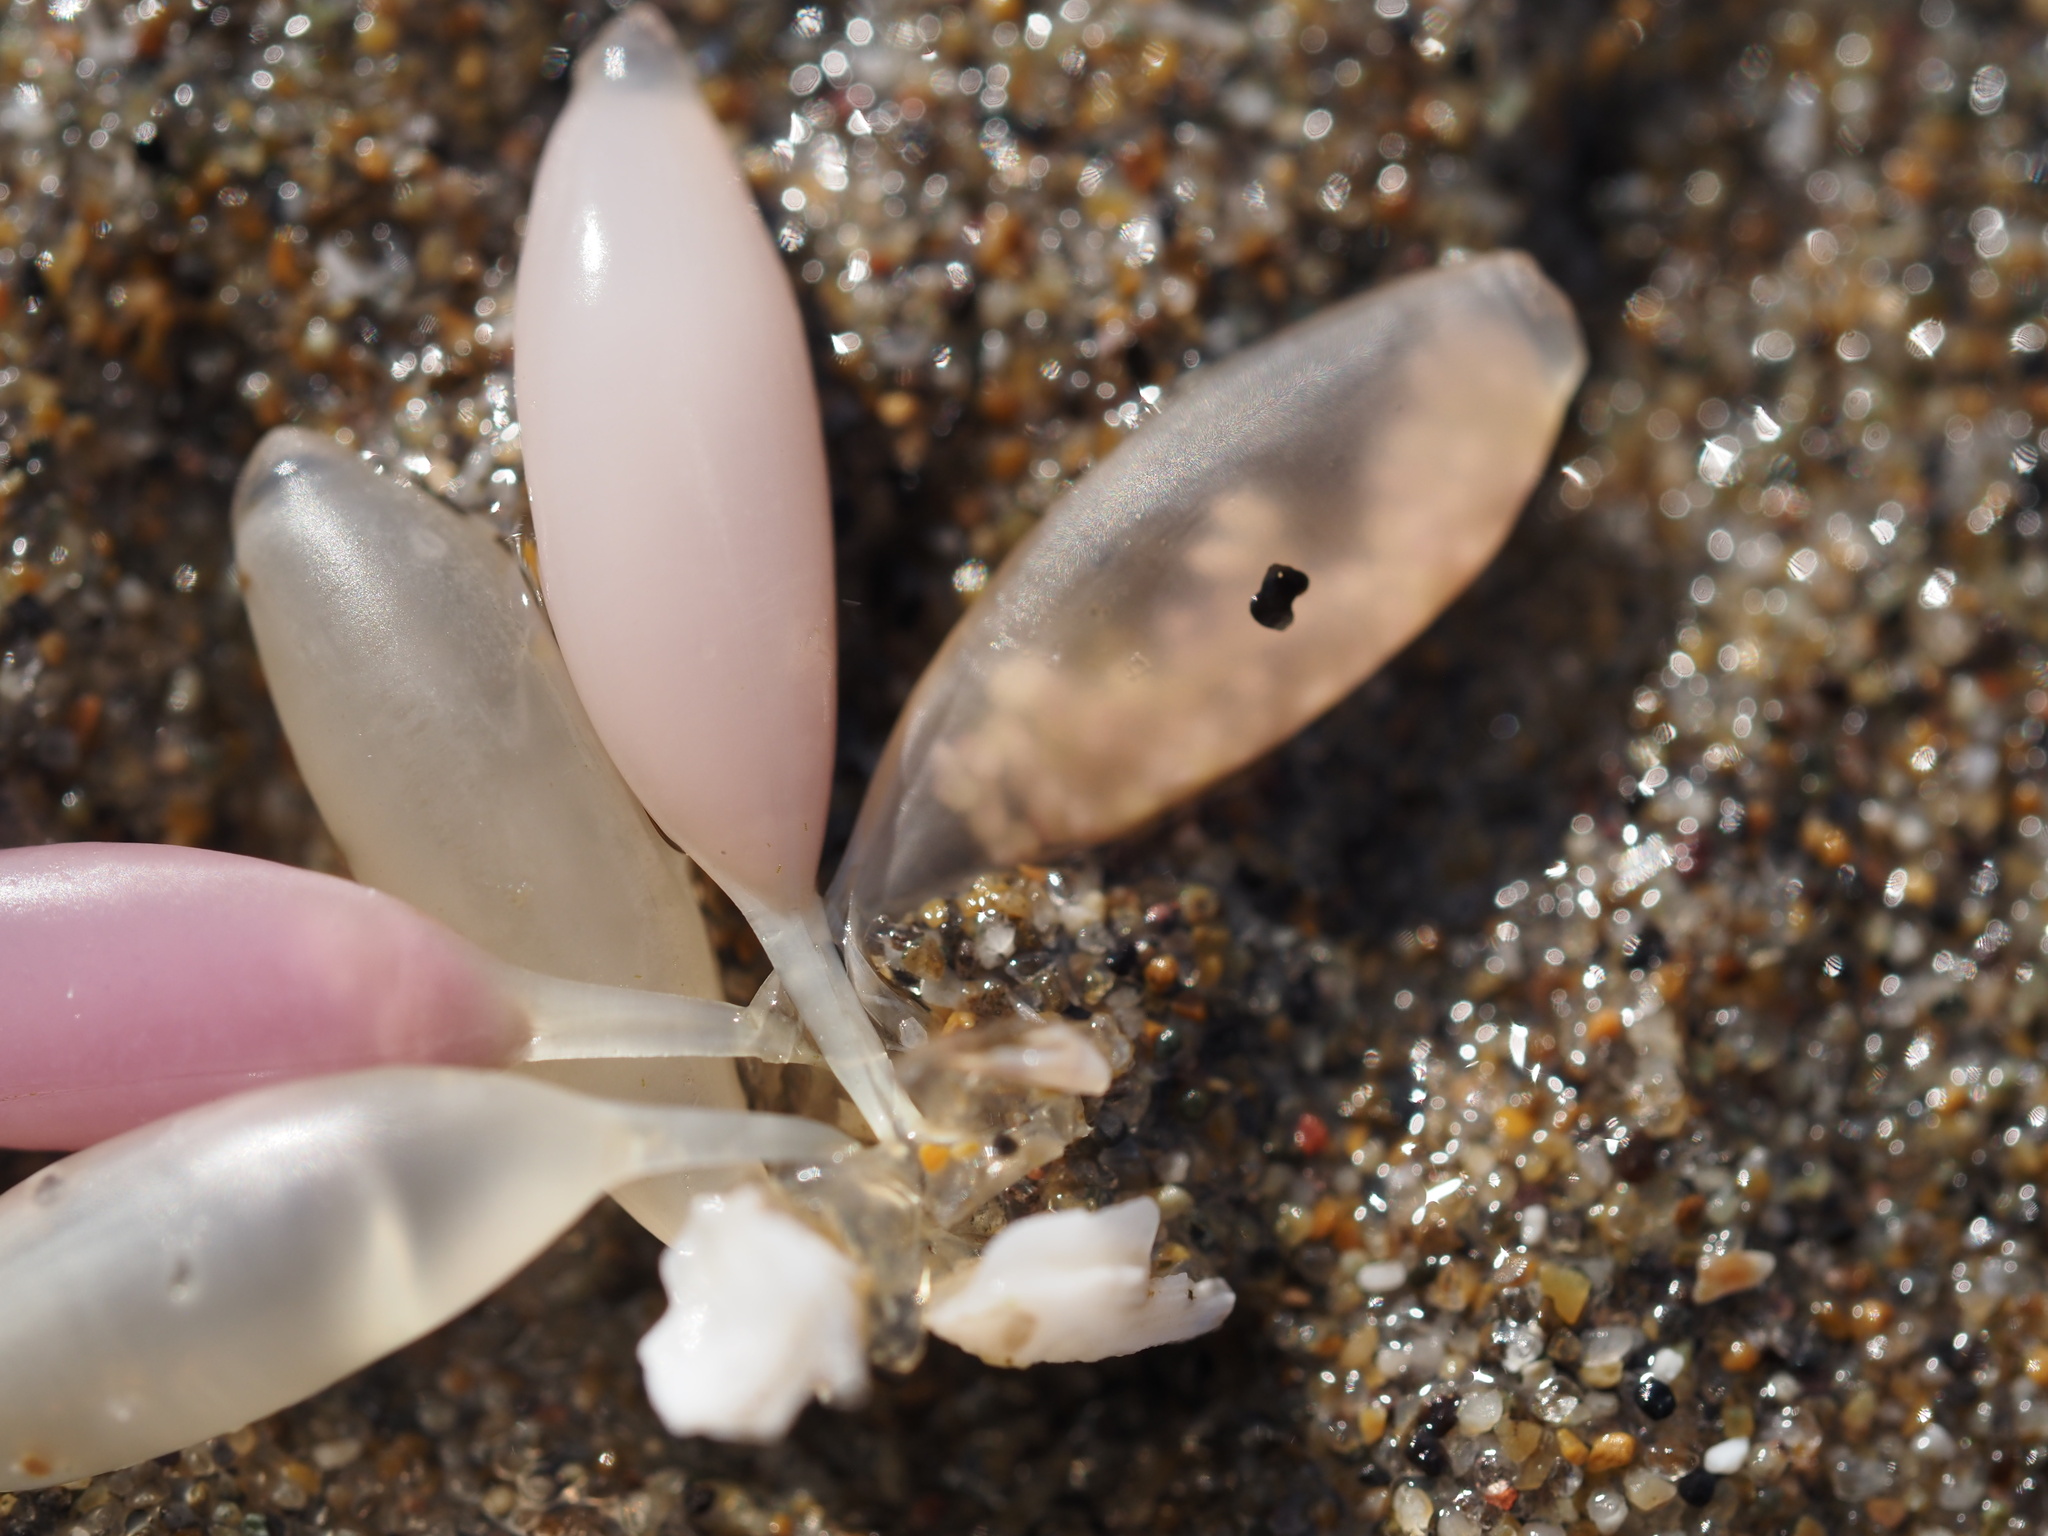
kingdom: Animalia
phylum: Mollusca
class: Gastropoda
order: Neogastropoda
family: Muricidae
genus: Nucella
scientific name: Nucella lamellosa
